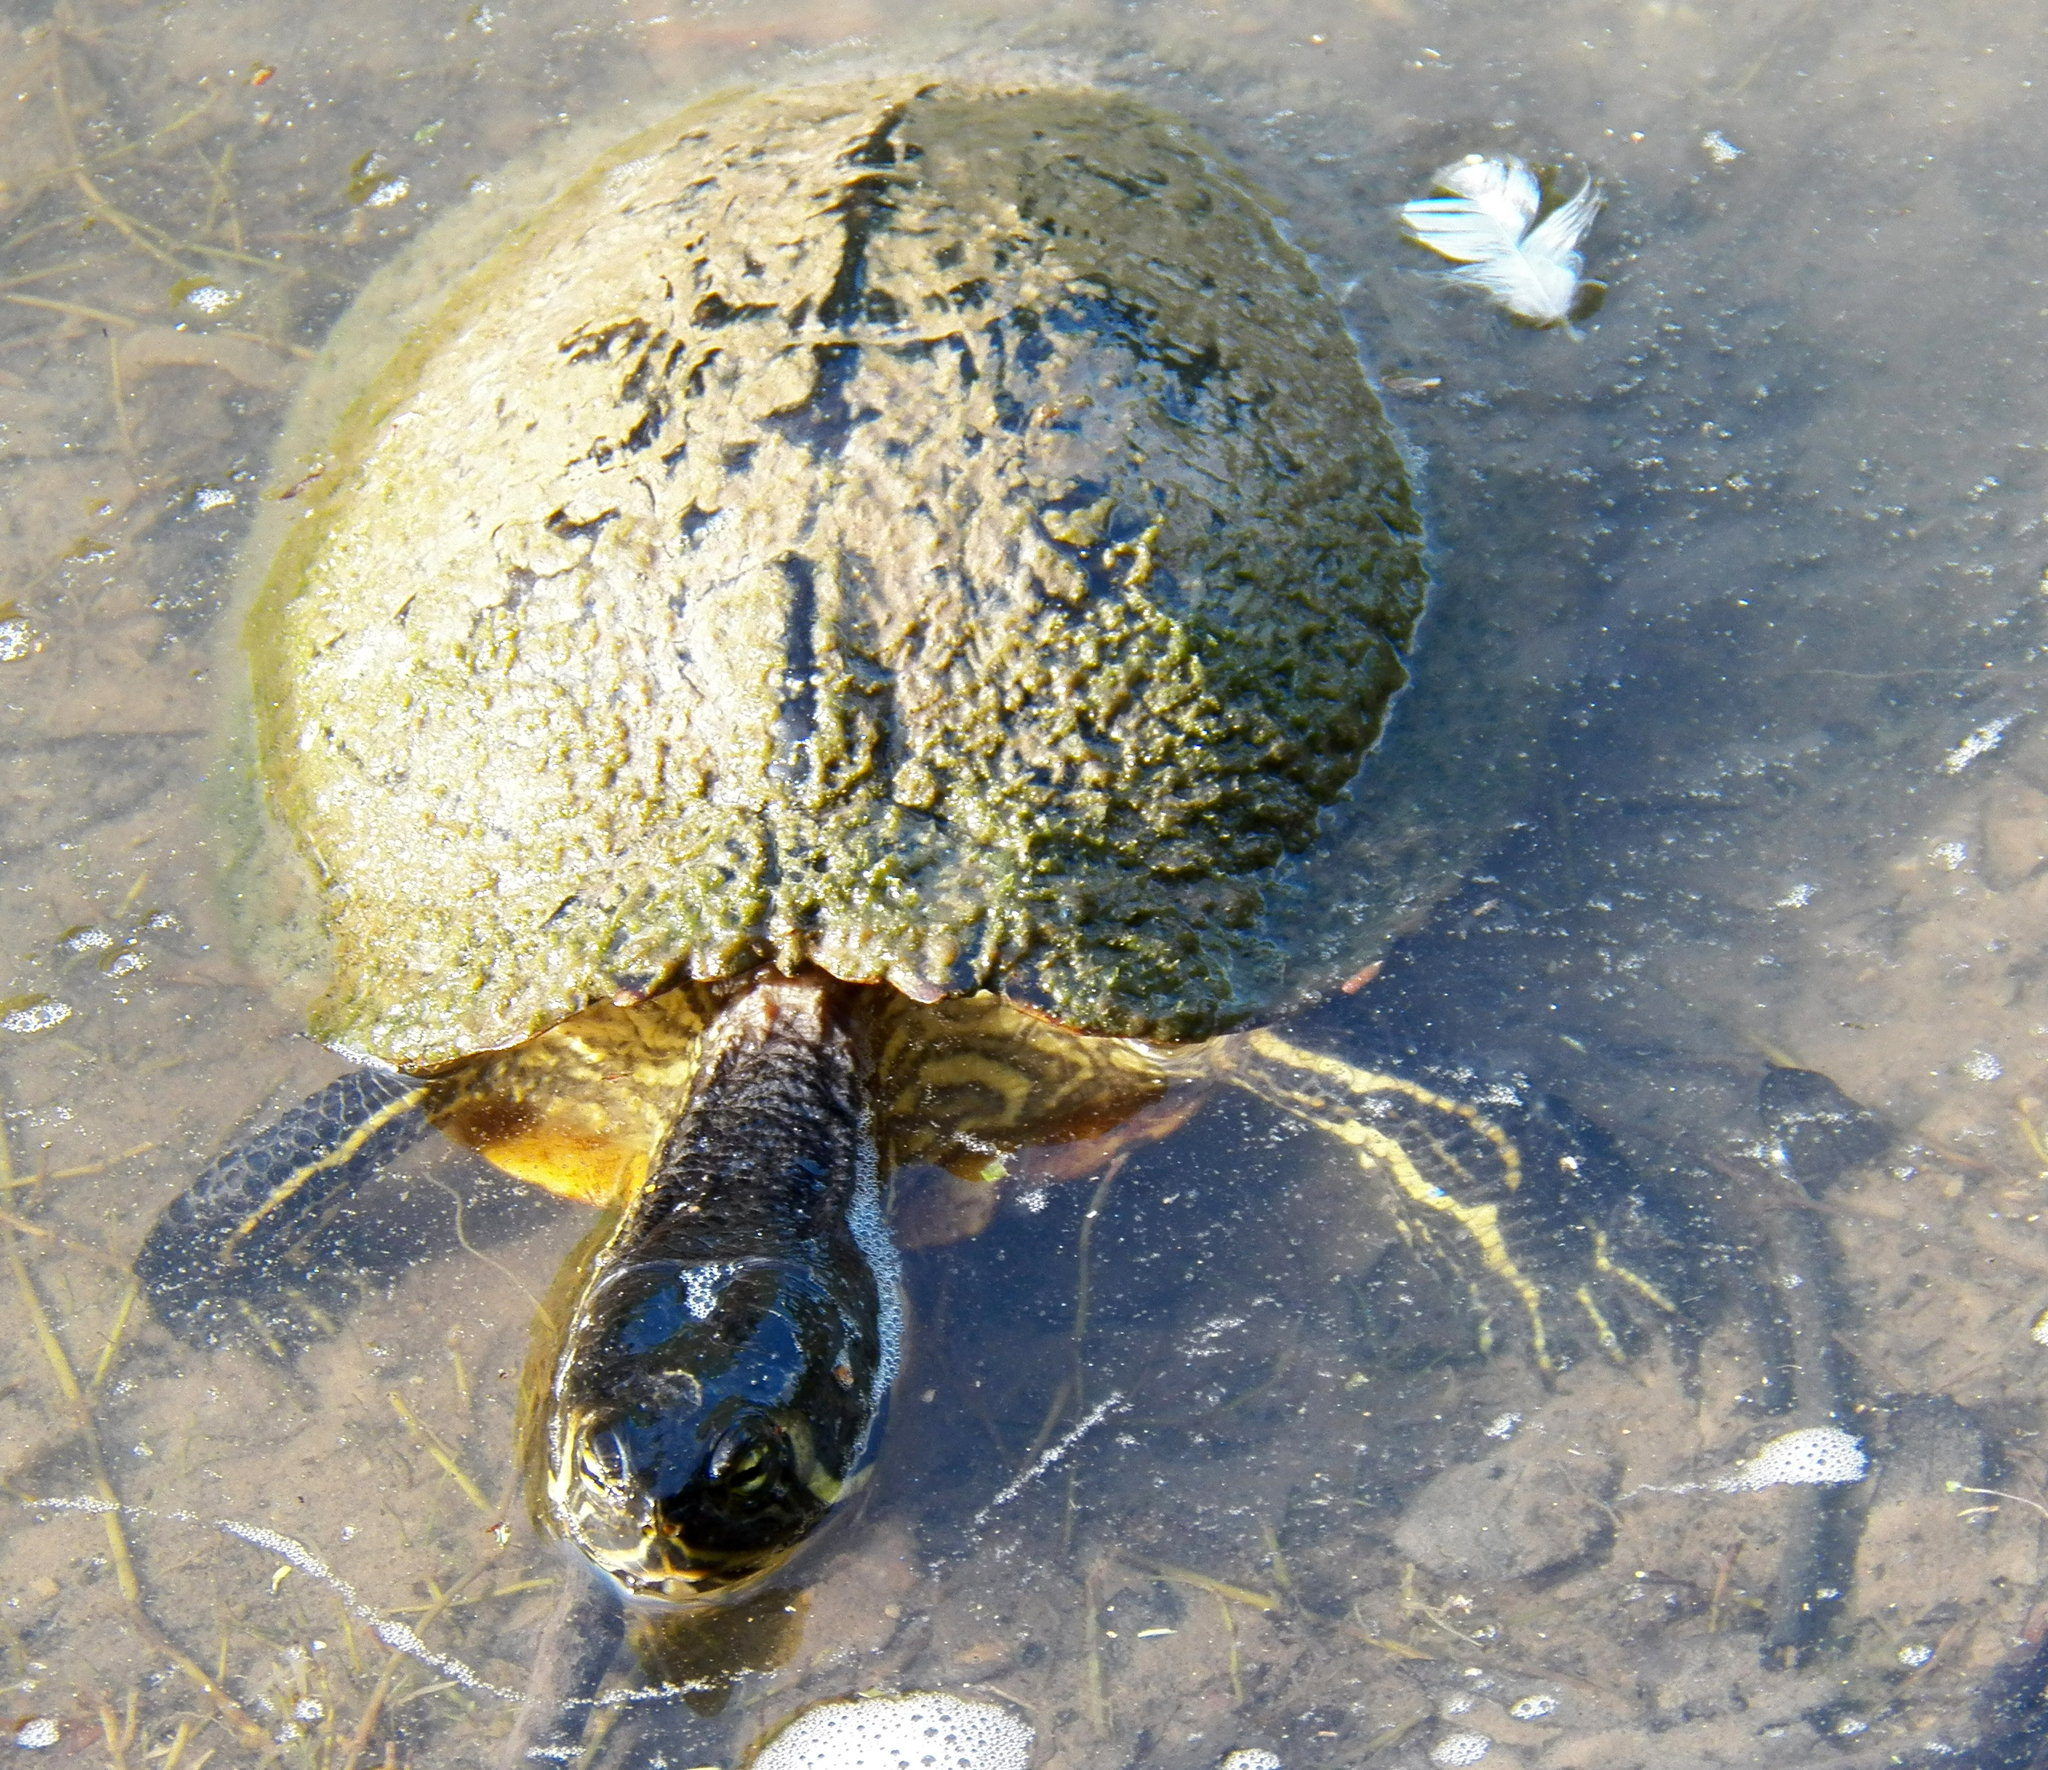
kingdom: Animalia
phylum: Chordata
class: Testudines
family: Emydidae
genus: Trachemys
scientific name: Trachemys scripta
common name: Slider
